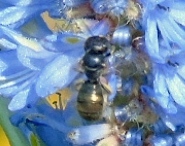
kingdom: Animalia
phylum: Arthropoda
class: Insecta
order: Hymenoptera
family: Apidae
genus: Ceratina
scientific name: Ceratina
